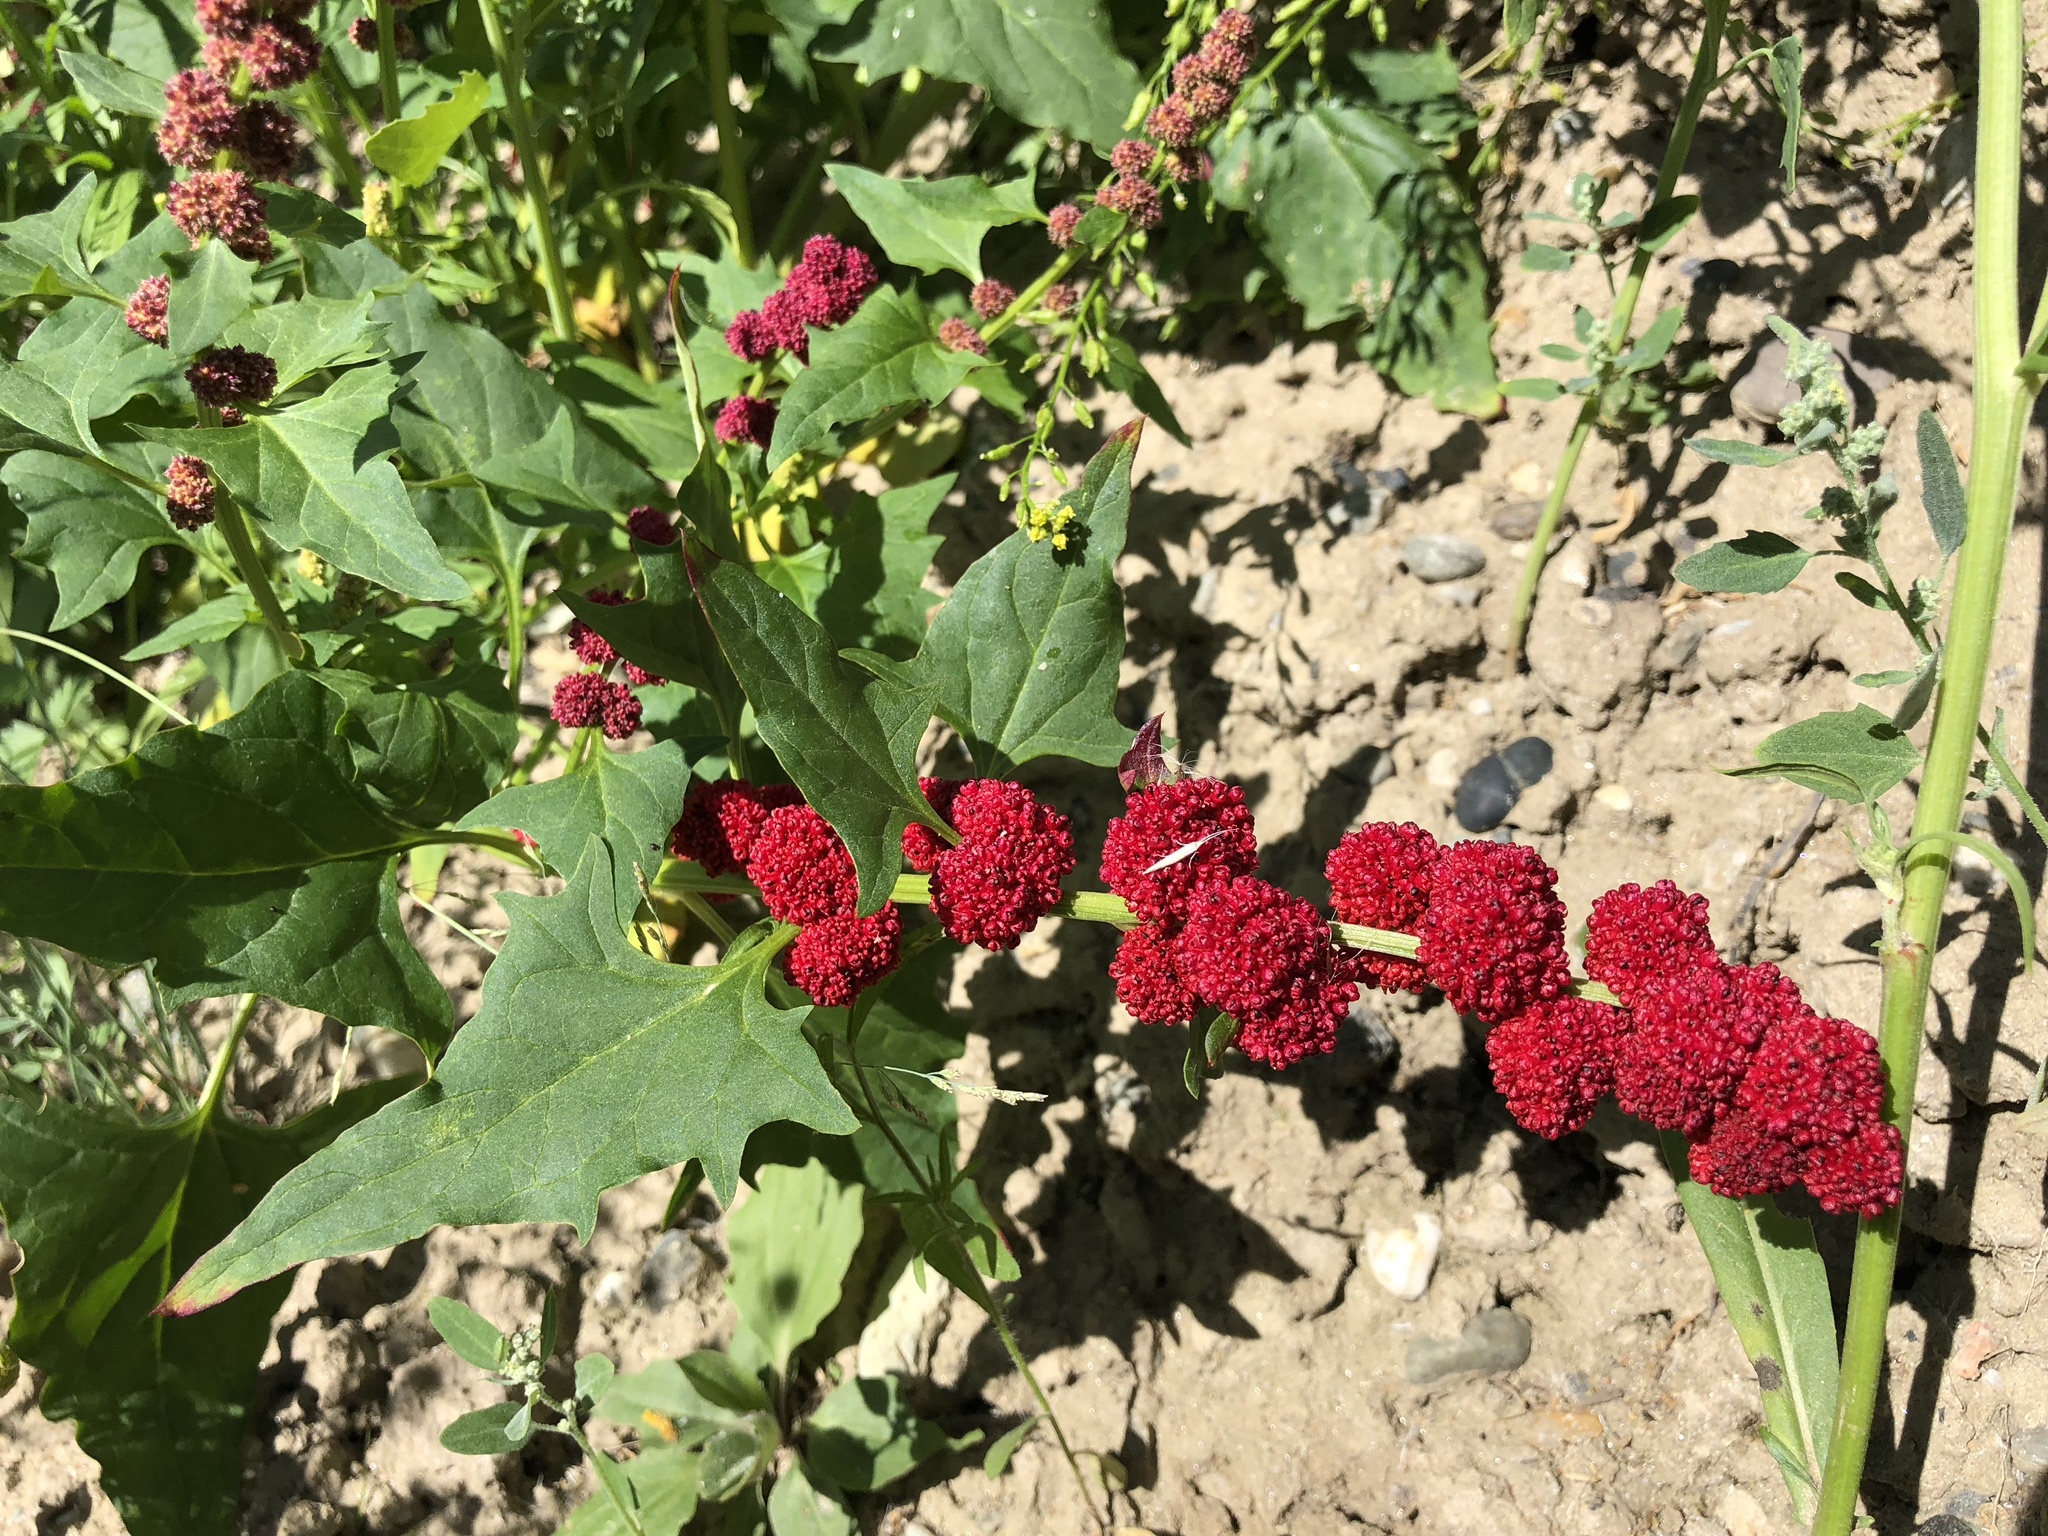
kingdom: Plantae
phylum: Tracheophyta
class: Magnoliopsida
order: Caryophyllales
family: Amaranthaceae
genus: Blitum
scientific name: Blitum capitatum
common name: Strawberry-blight
